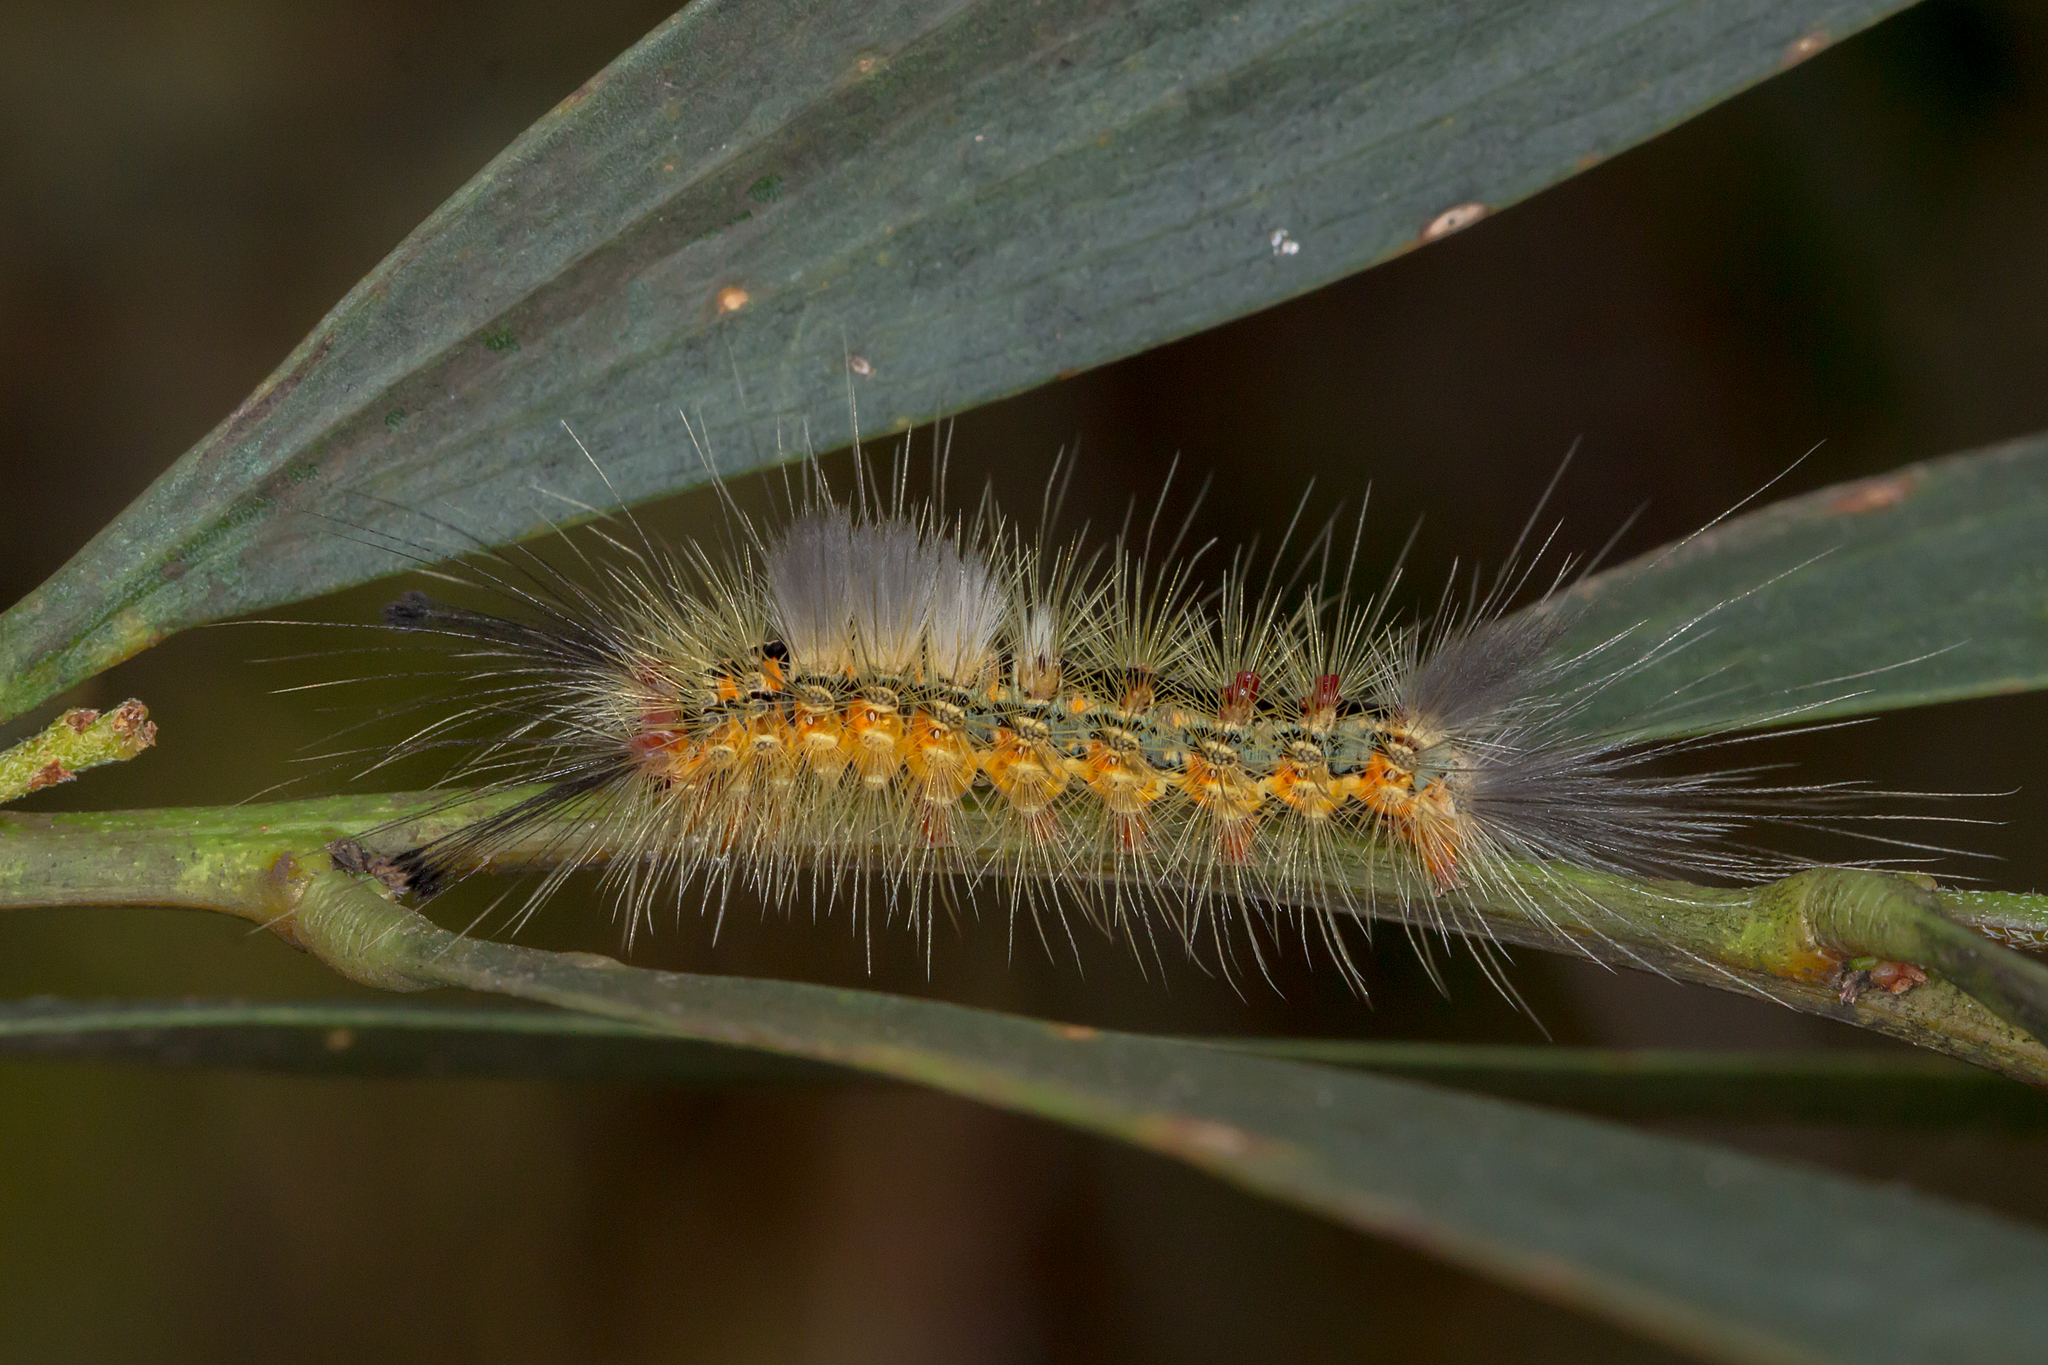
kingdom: Animalia
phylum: Arthropoda
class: Insecta
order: Lepidoptera
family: Erebidae
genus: Orgyia
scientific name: Orgyia
